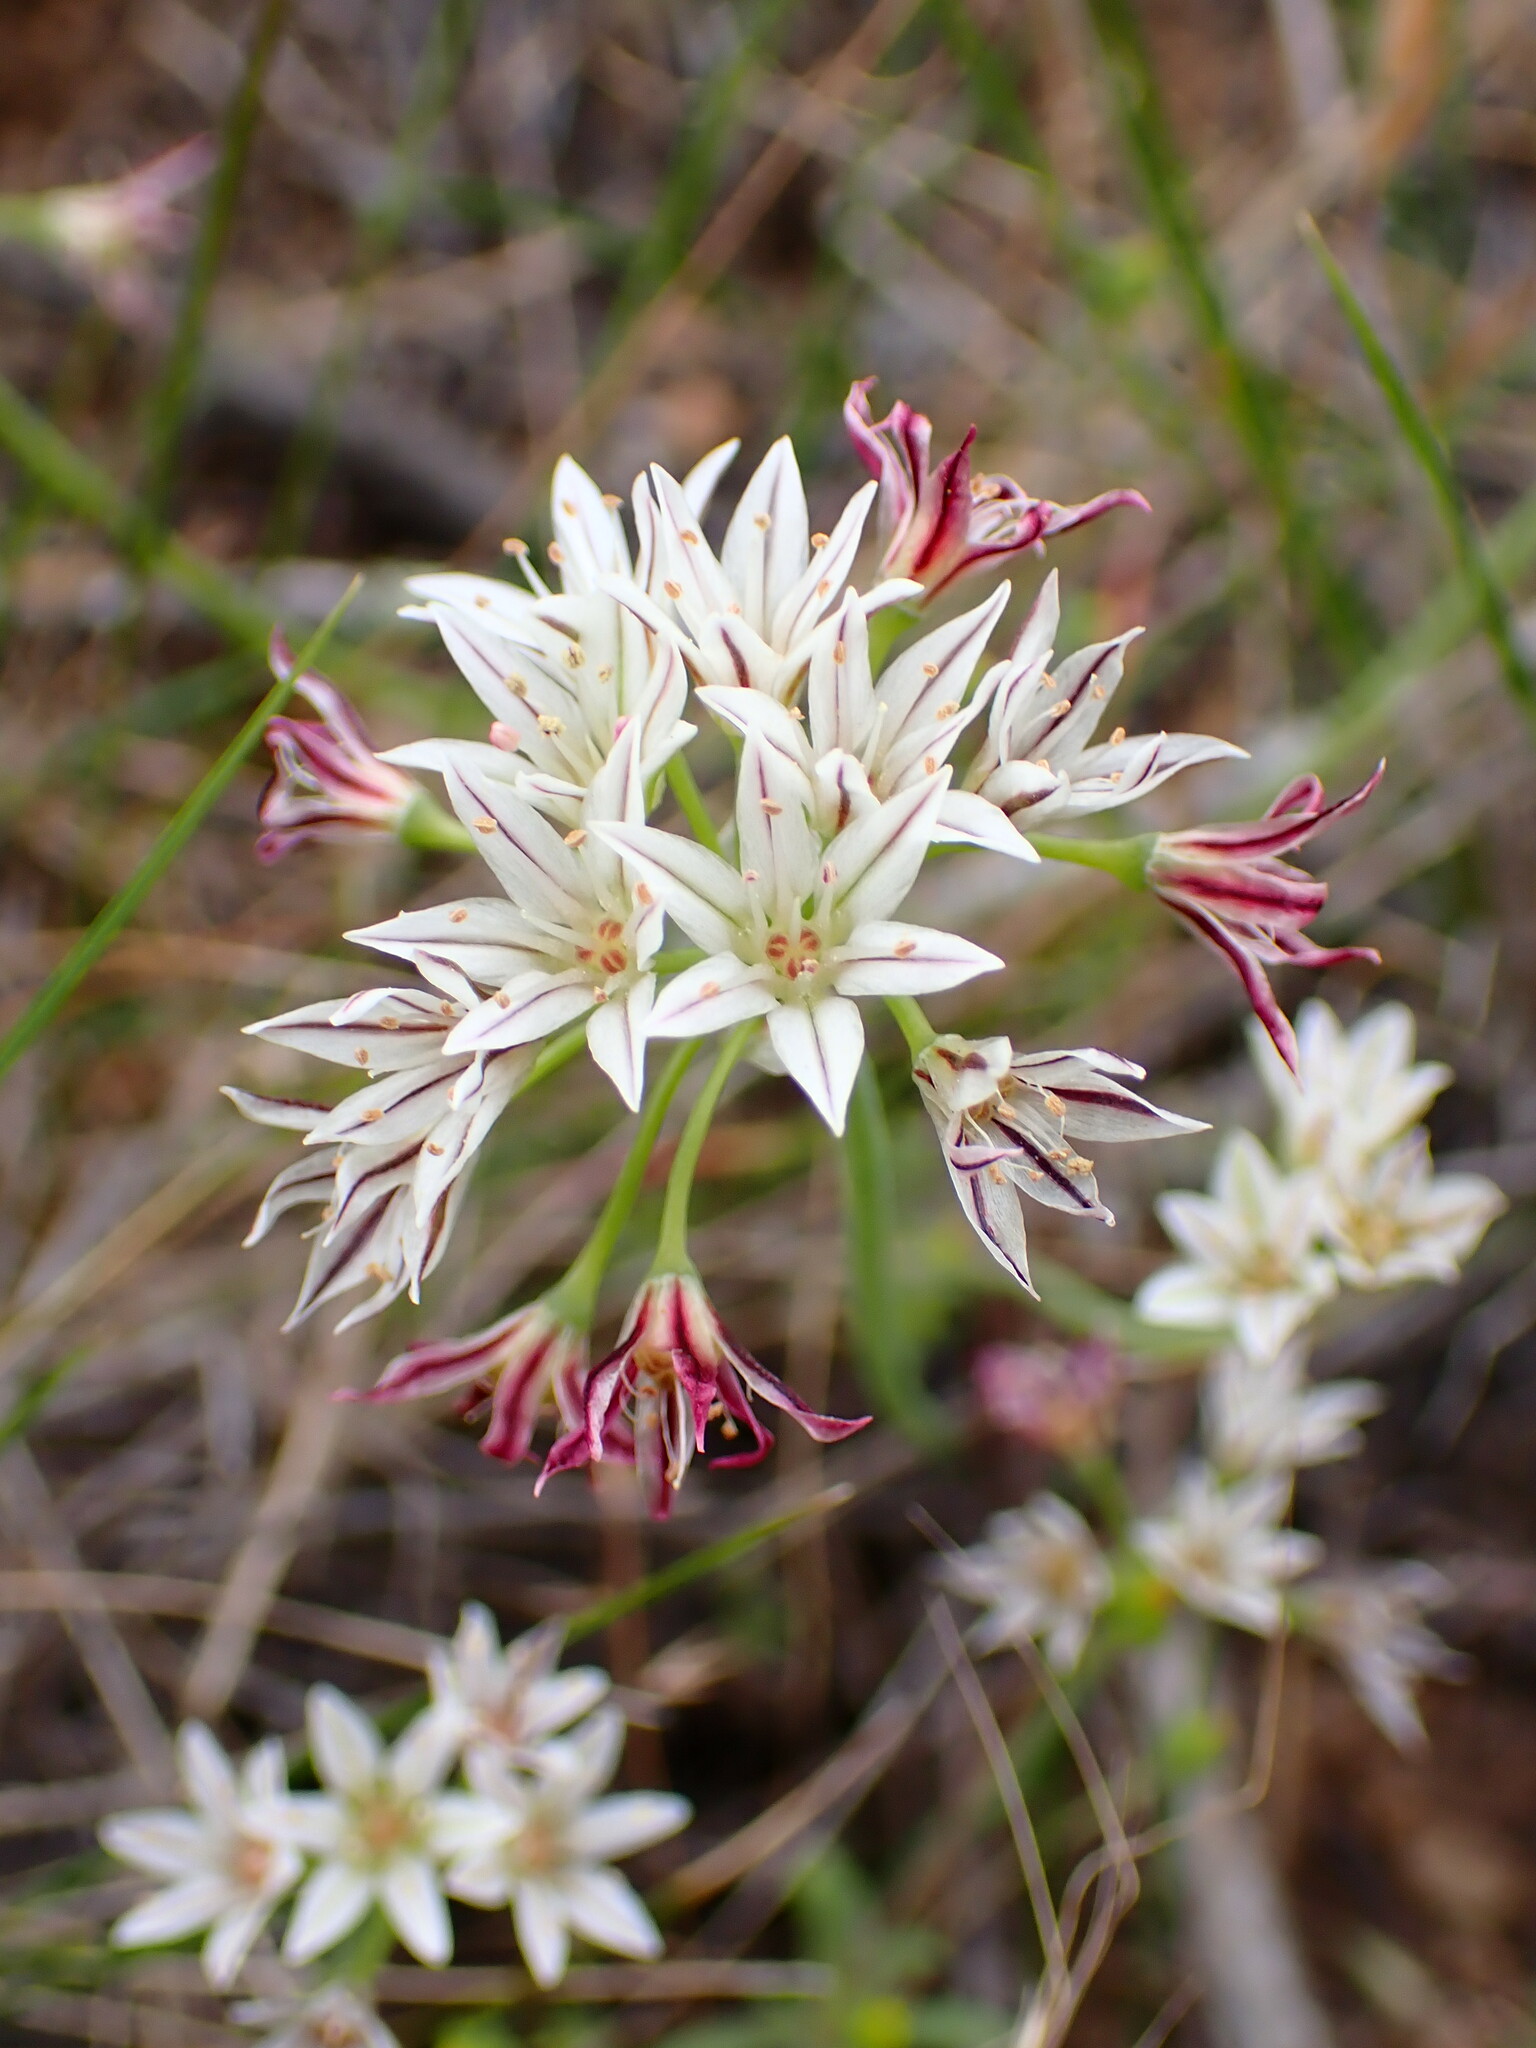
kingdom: Plantae
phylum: Tracheophyta
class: Liliopsida
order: Asparagales
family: Amaryllidaceae
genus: Allium
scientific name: Allium lacunosum
